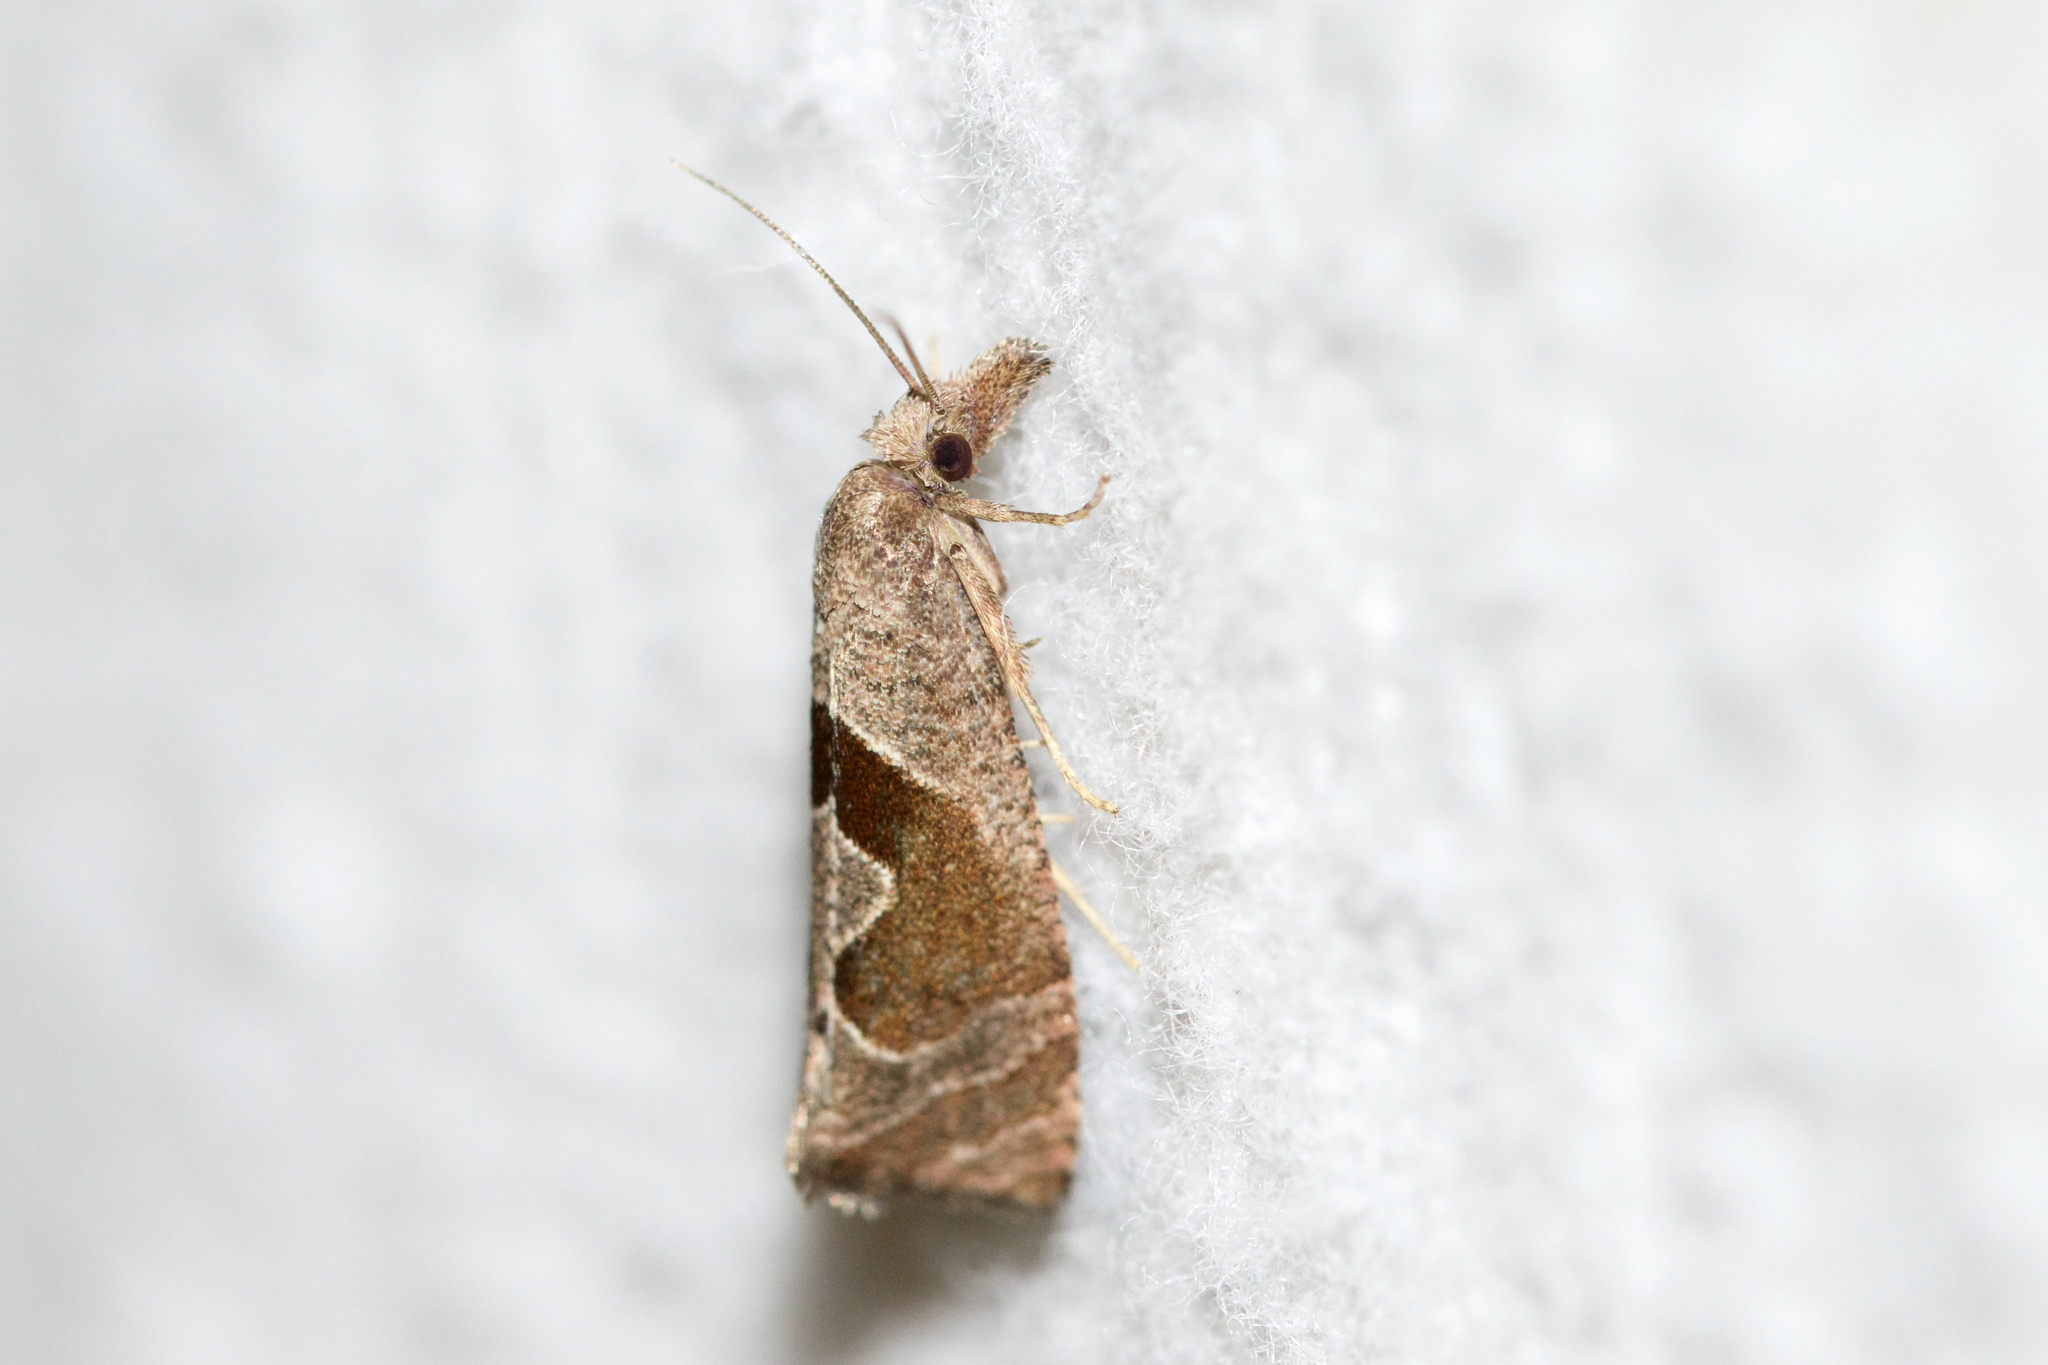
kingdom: Animalia
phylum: Arthropoda
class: Insecta
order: Lepidoptera
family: Tortricidae
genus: Pelochrista
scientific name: Pelochrista similiana
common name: Similar eucosma
